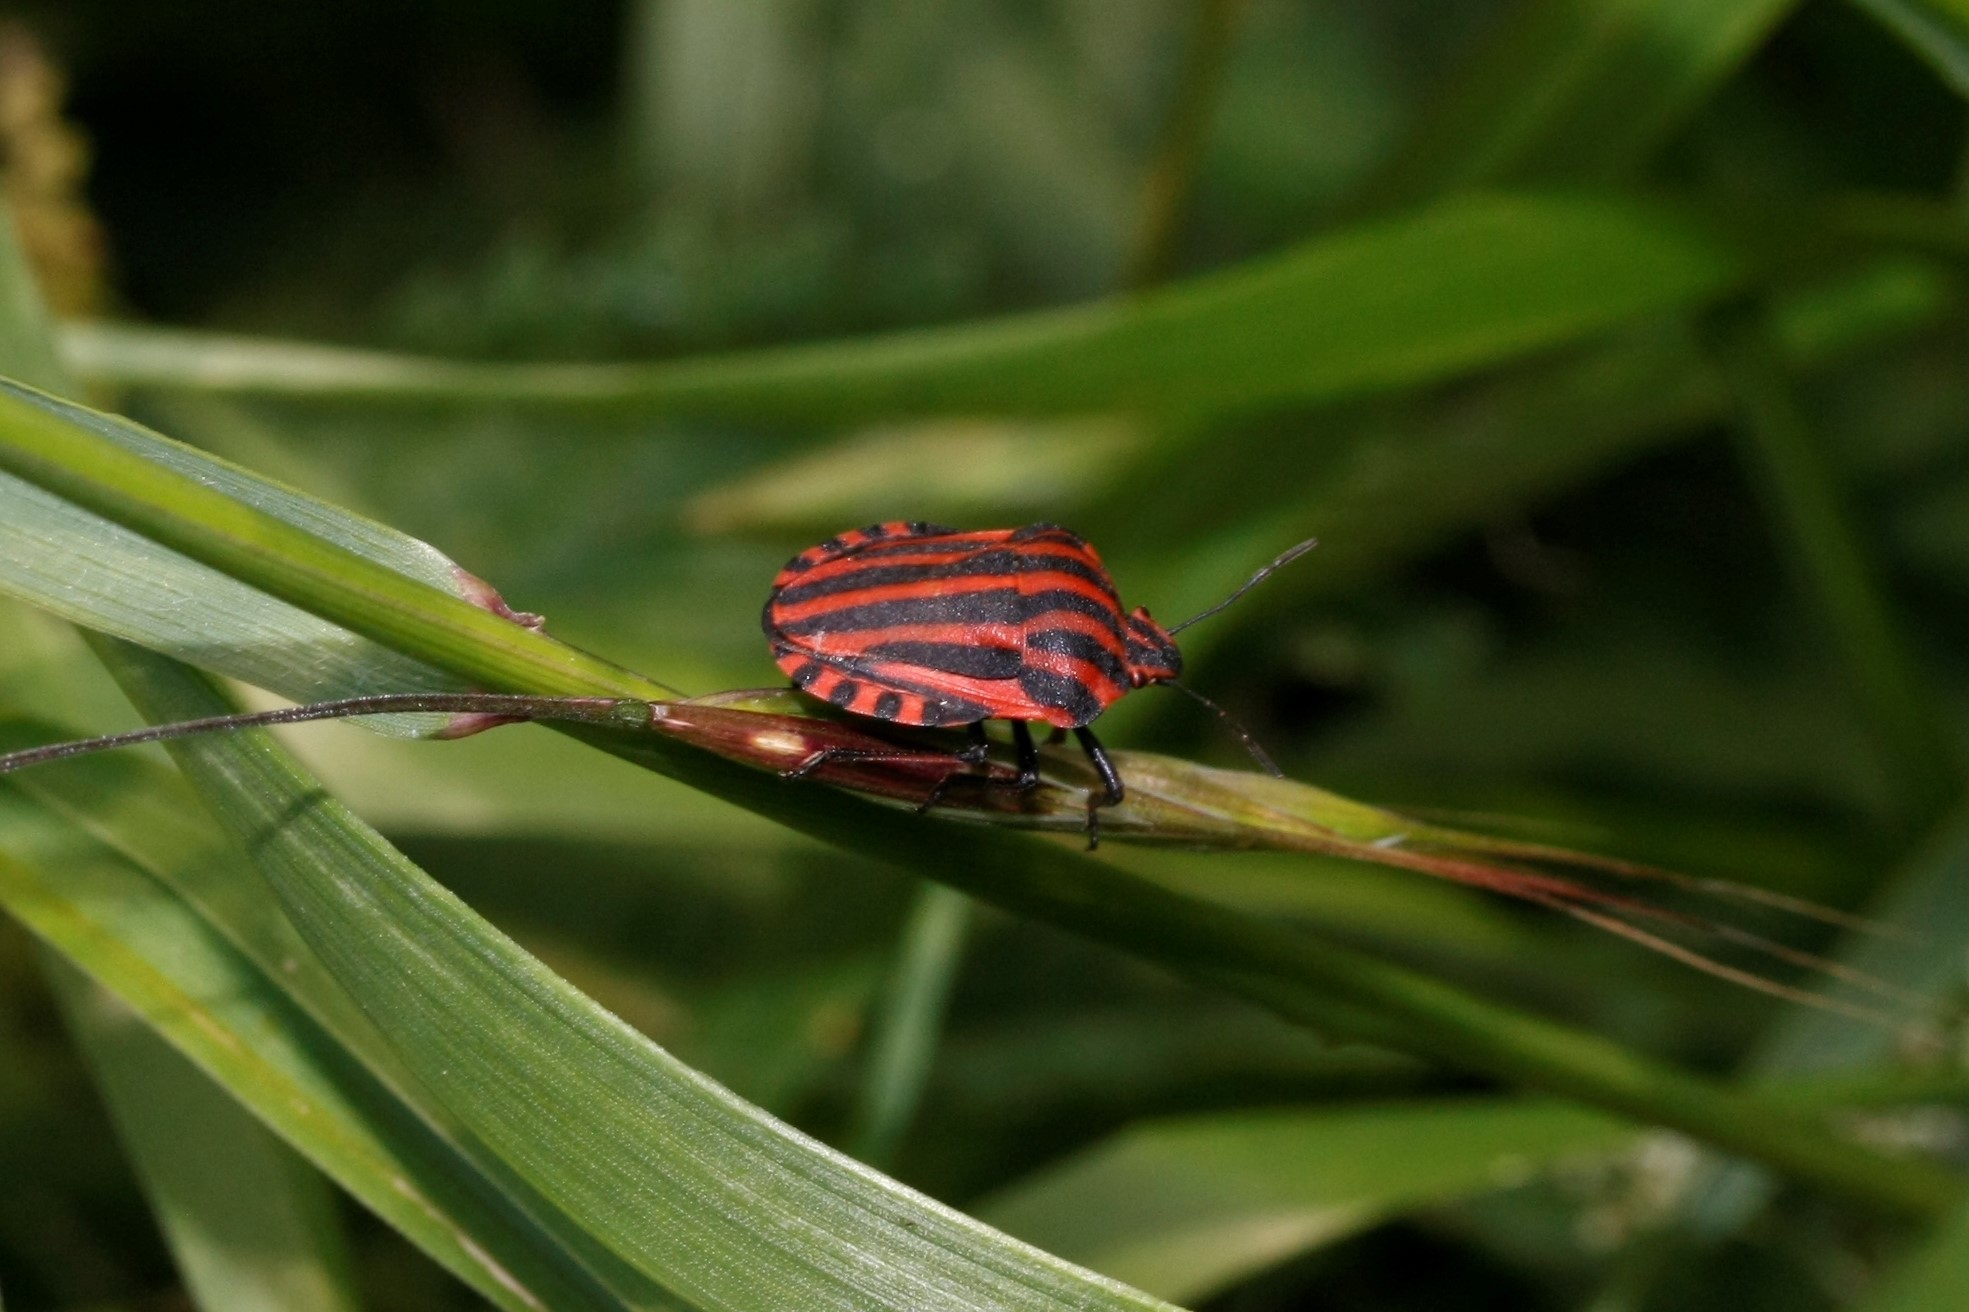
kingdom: Animalia
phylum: Arthropoda
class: Insecta
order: Hemiptera
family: Pentatomidae
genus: Graphosoma
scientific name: Graphosoma italicum
